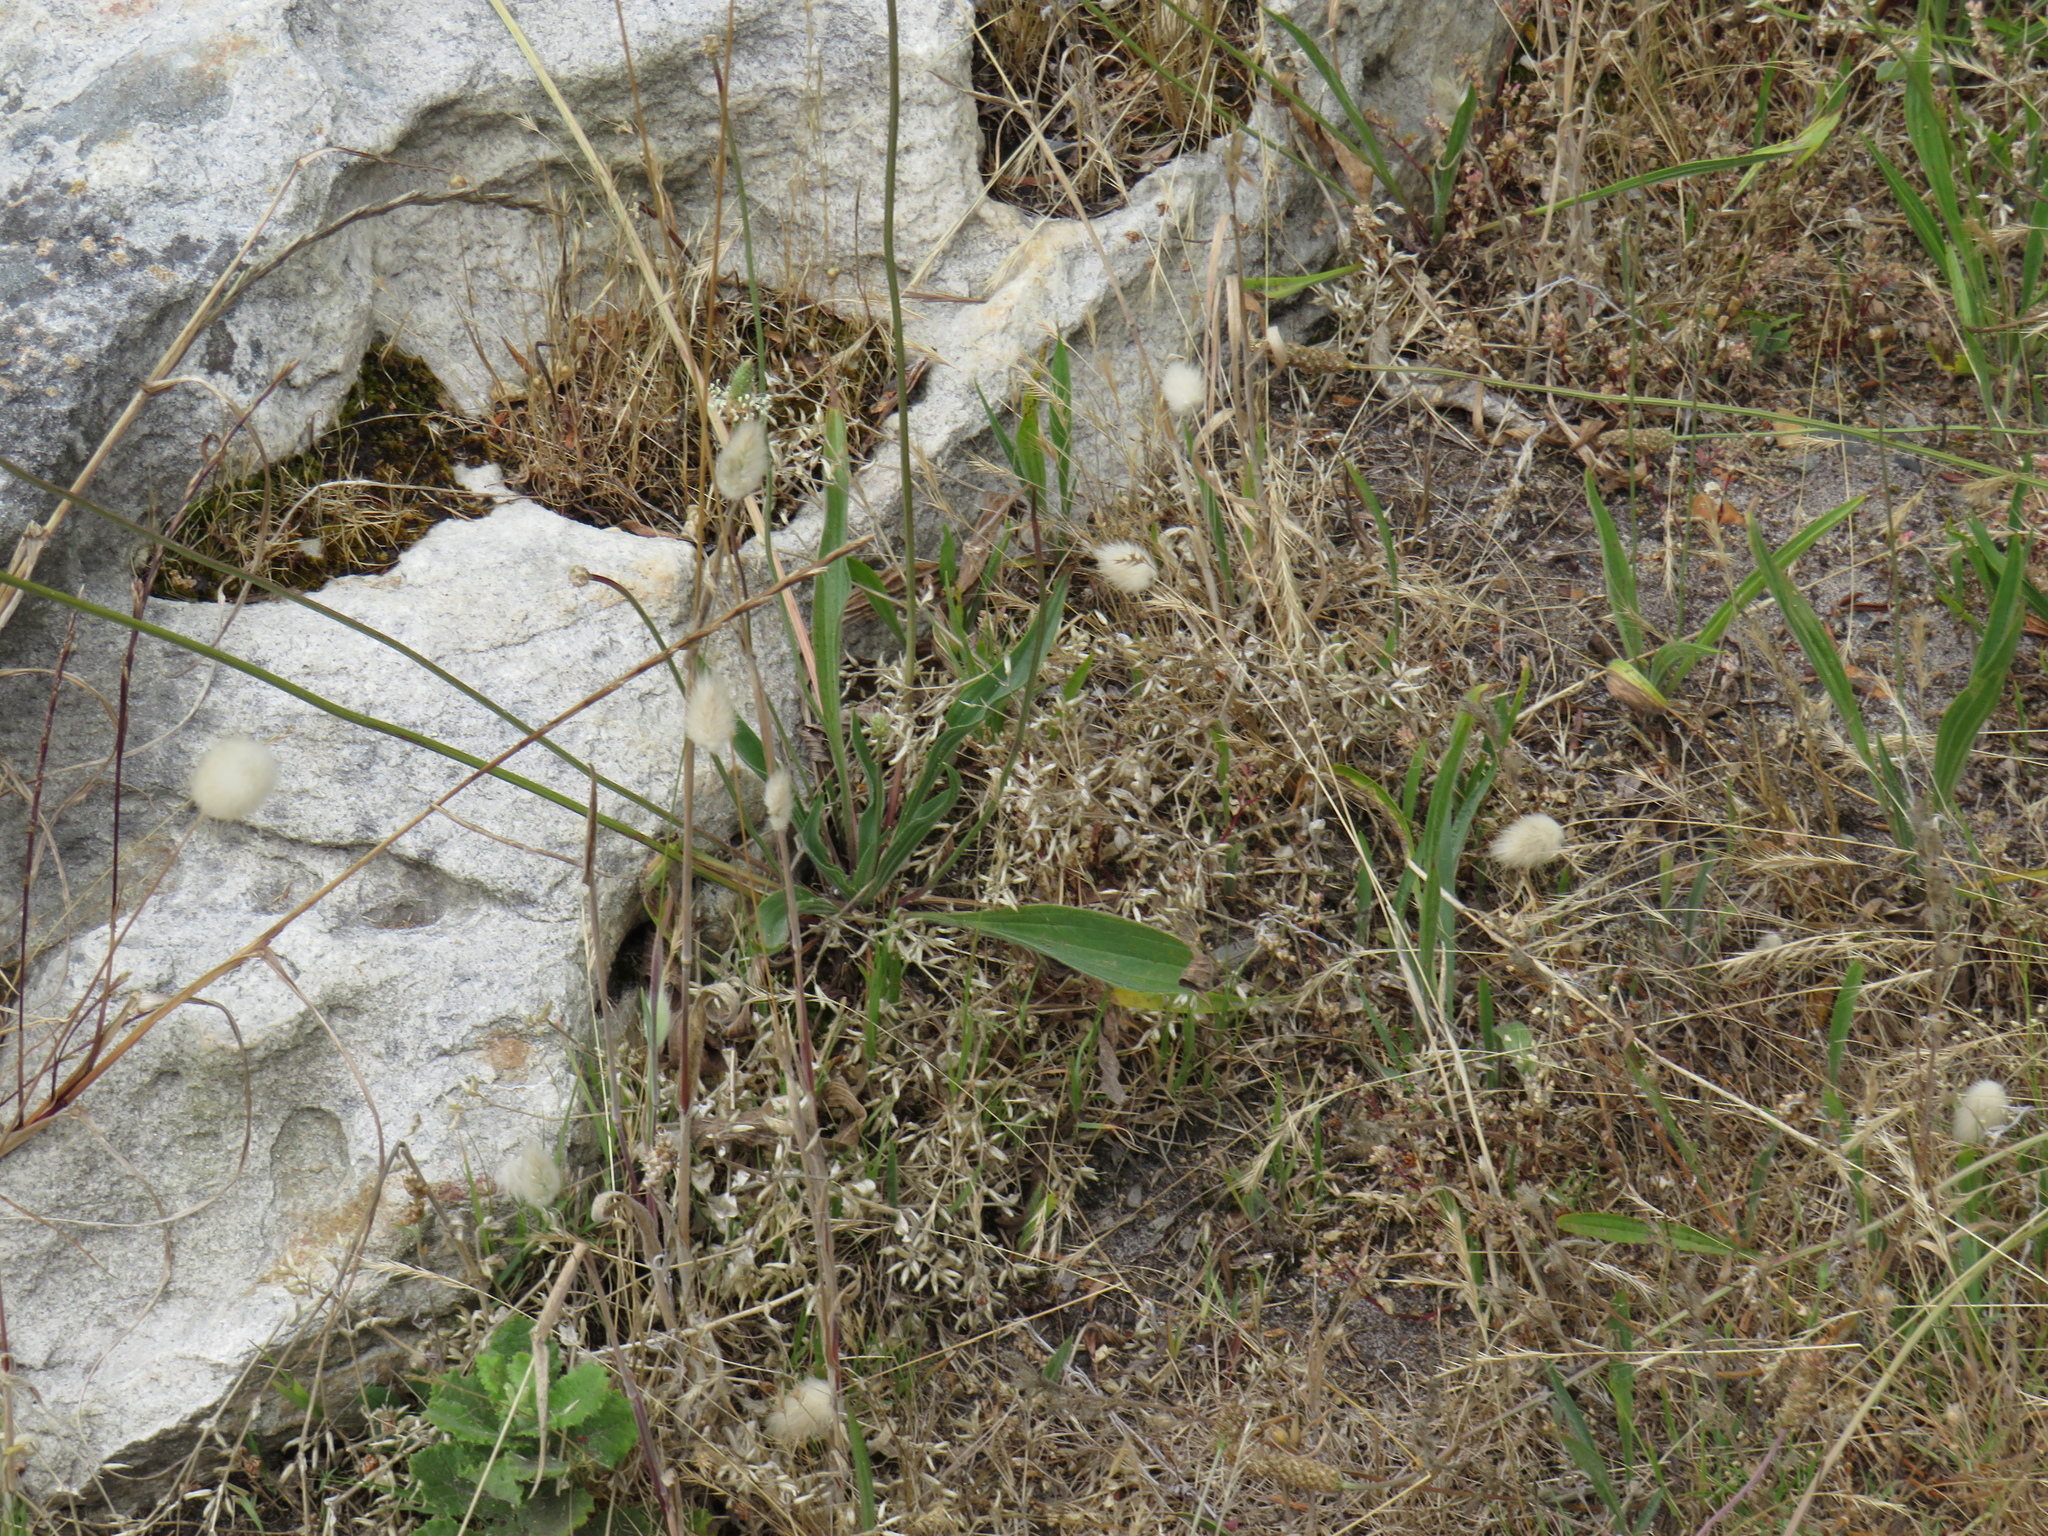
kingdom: Plantae
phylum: Tracheophyta
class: Magnoliopsida
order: Lamiales
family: Plantaginaceae
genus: Plantago
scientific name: Plantago lanceolata
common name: Ribwort plantain
